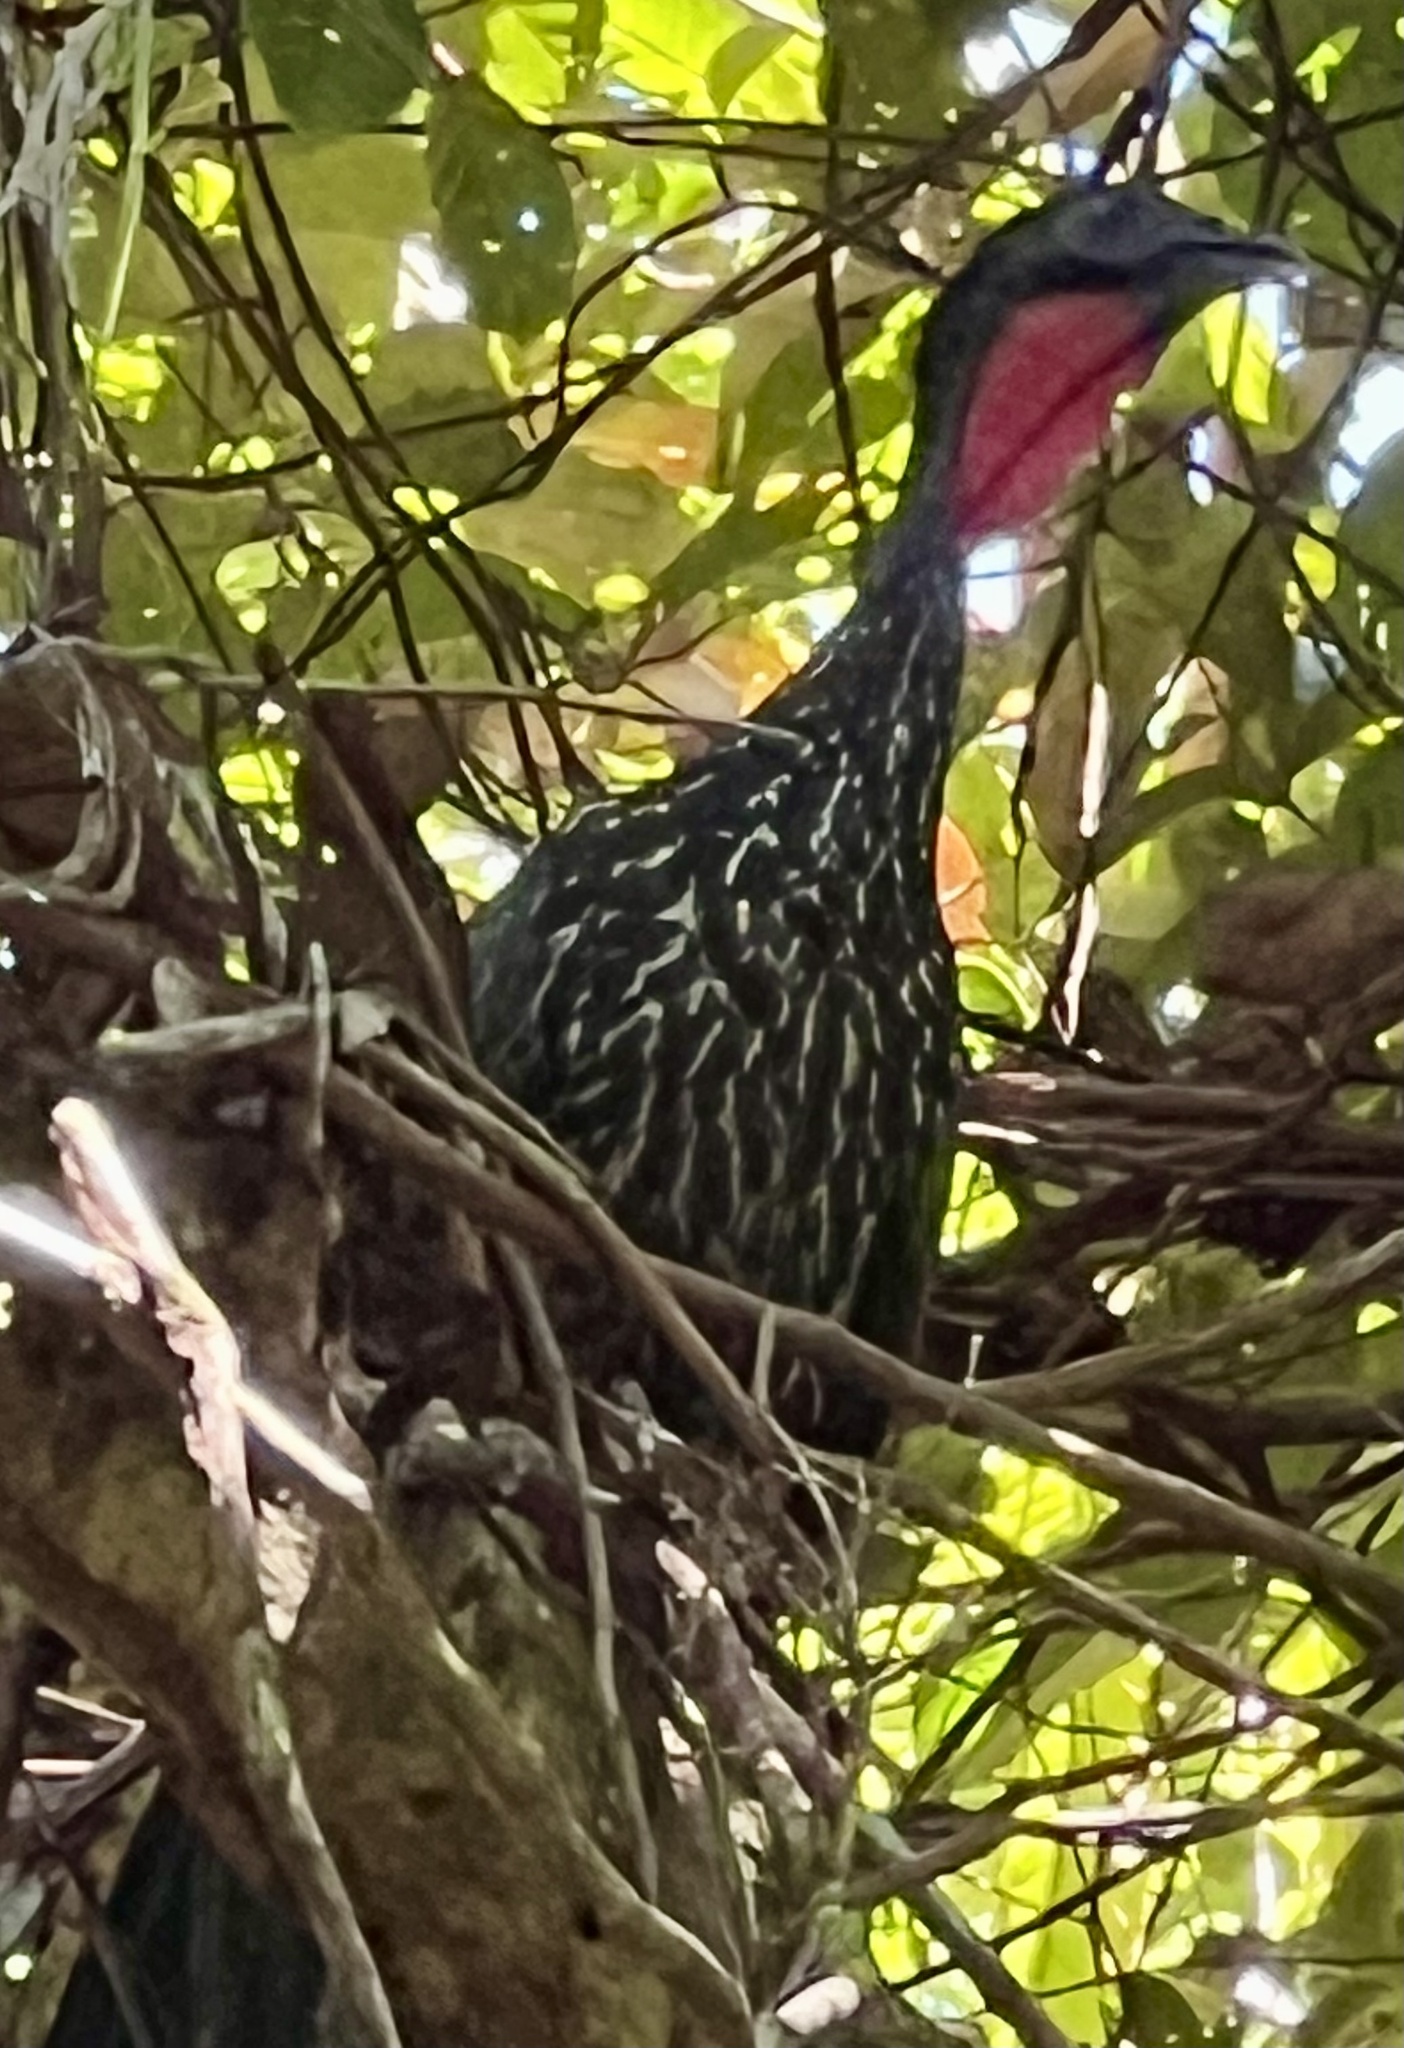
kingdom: Animalia
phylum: Chordata
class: Aves
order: Galliformes
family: Cracidae
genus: Penelope
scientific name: Penelope purpurascens
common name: Crested guan
